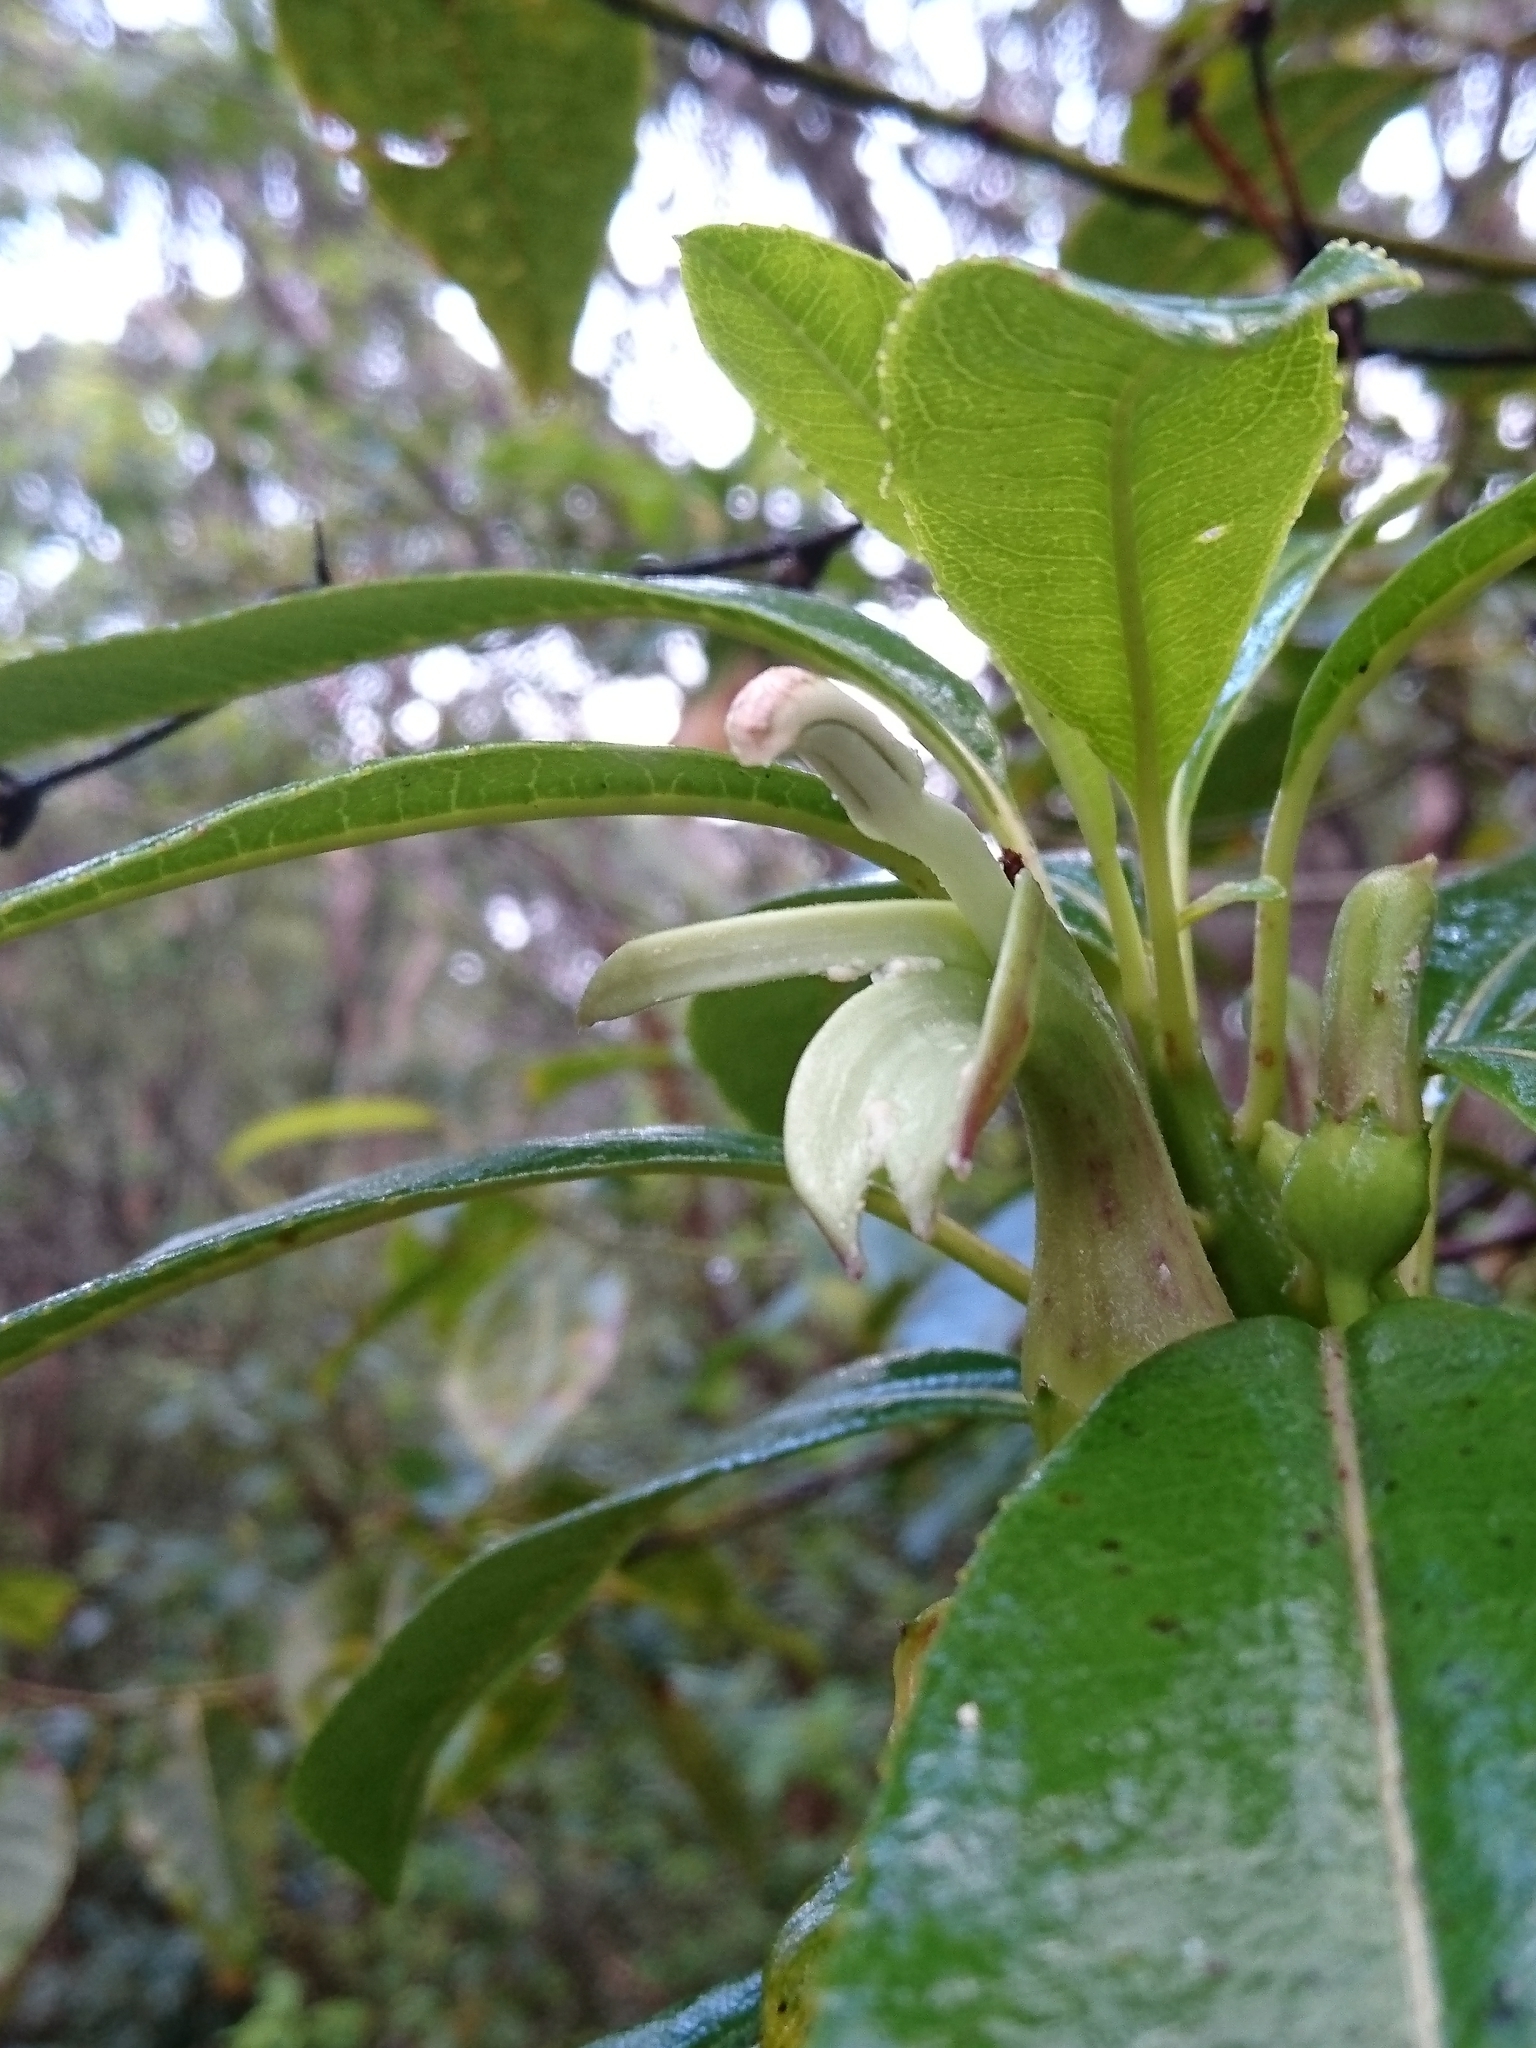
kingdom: Plantae
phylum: Tracheophyta
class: Magnoliopsida
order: Asterales
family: Campanulaceae
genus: Clermontia
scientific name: Clermontia fauriei
